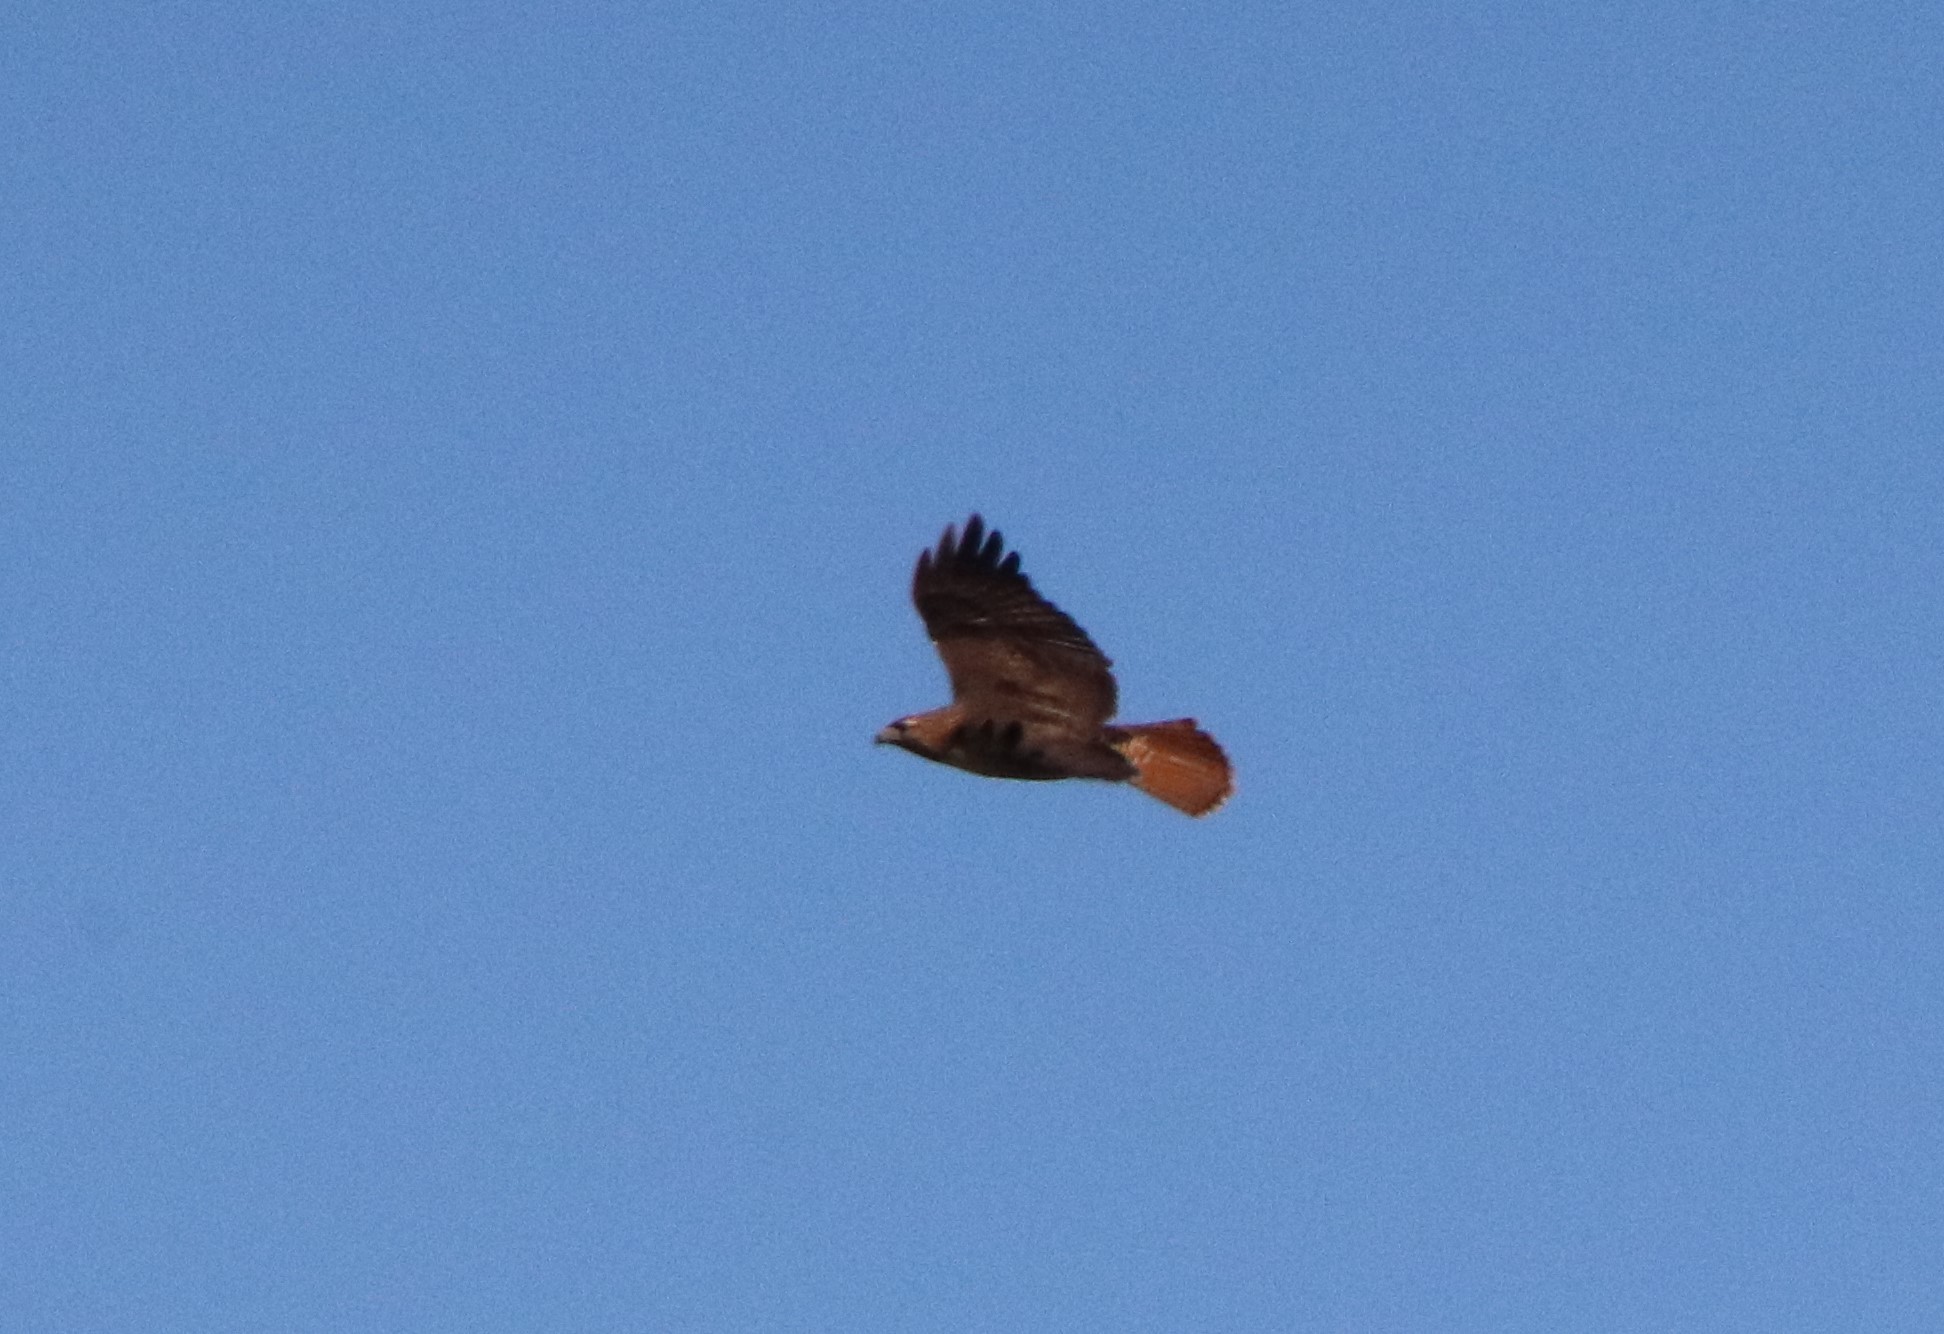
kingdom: Animalia
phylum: Chordata
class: Aves
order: Accipitriformes
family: Accipitridae
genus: Buteo
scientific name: Buteo jamaicensis
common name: Red-tailed hawk
